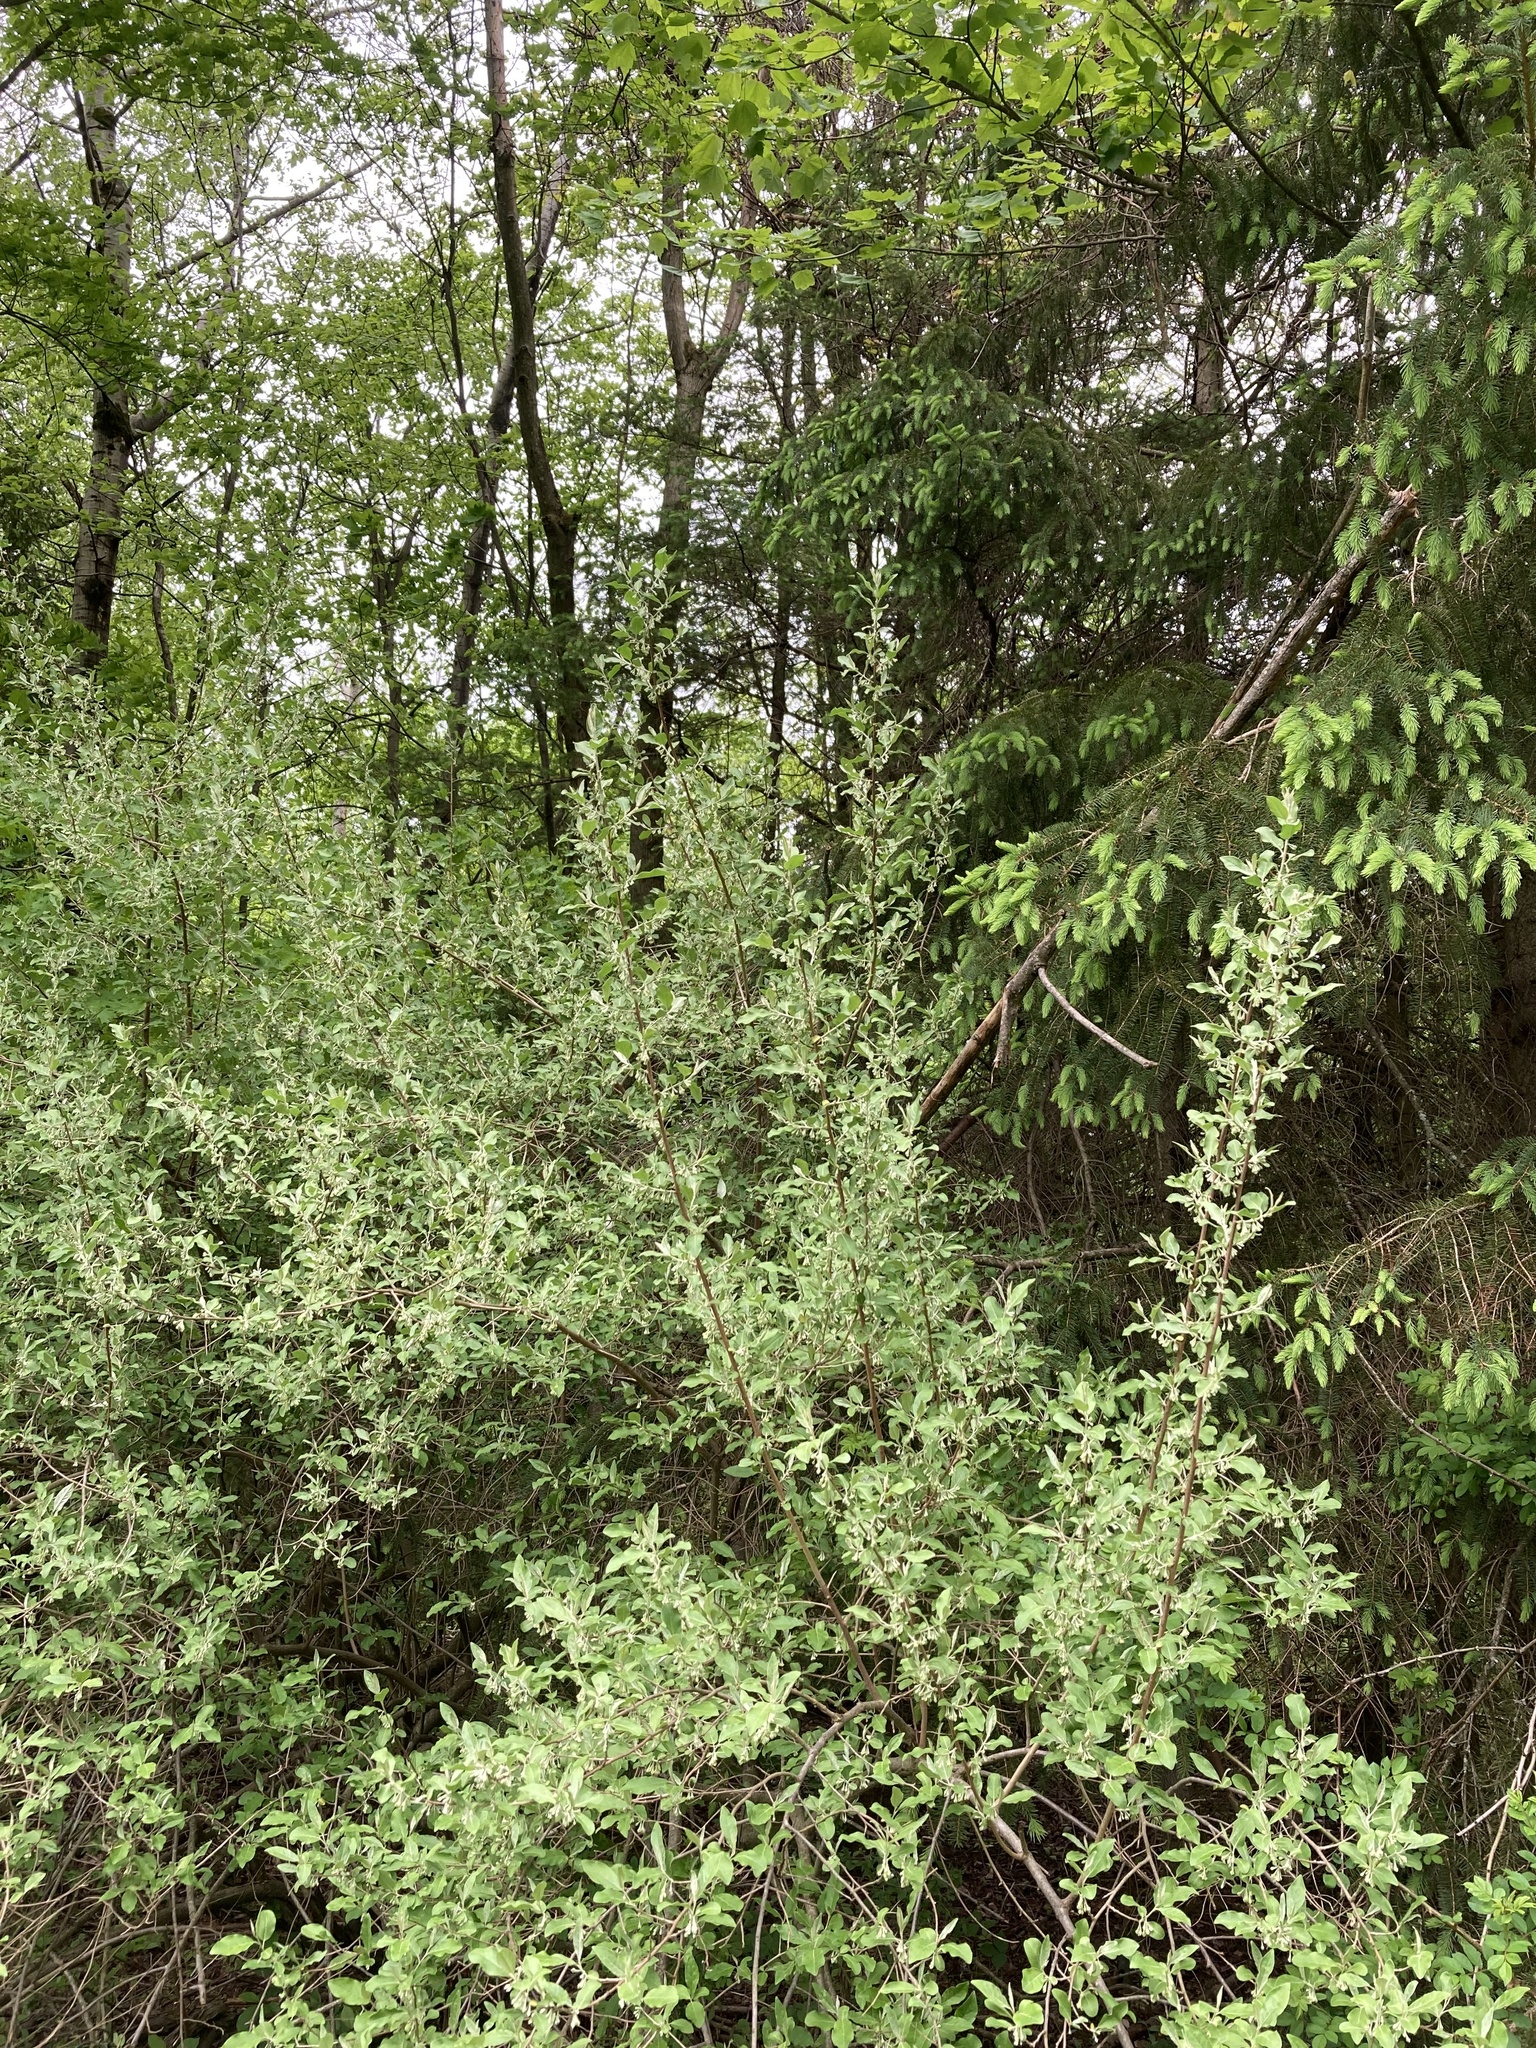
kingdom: Plantae
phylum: Tracheophyta
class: Magnoliopsida
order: Rosales
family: Elaeagnaceae
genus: Elaeagnus
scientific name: Elaeagnus umbellata
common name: Autumn olive
